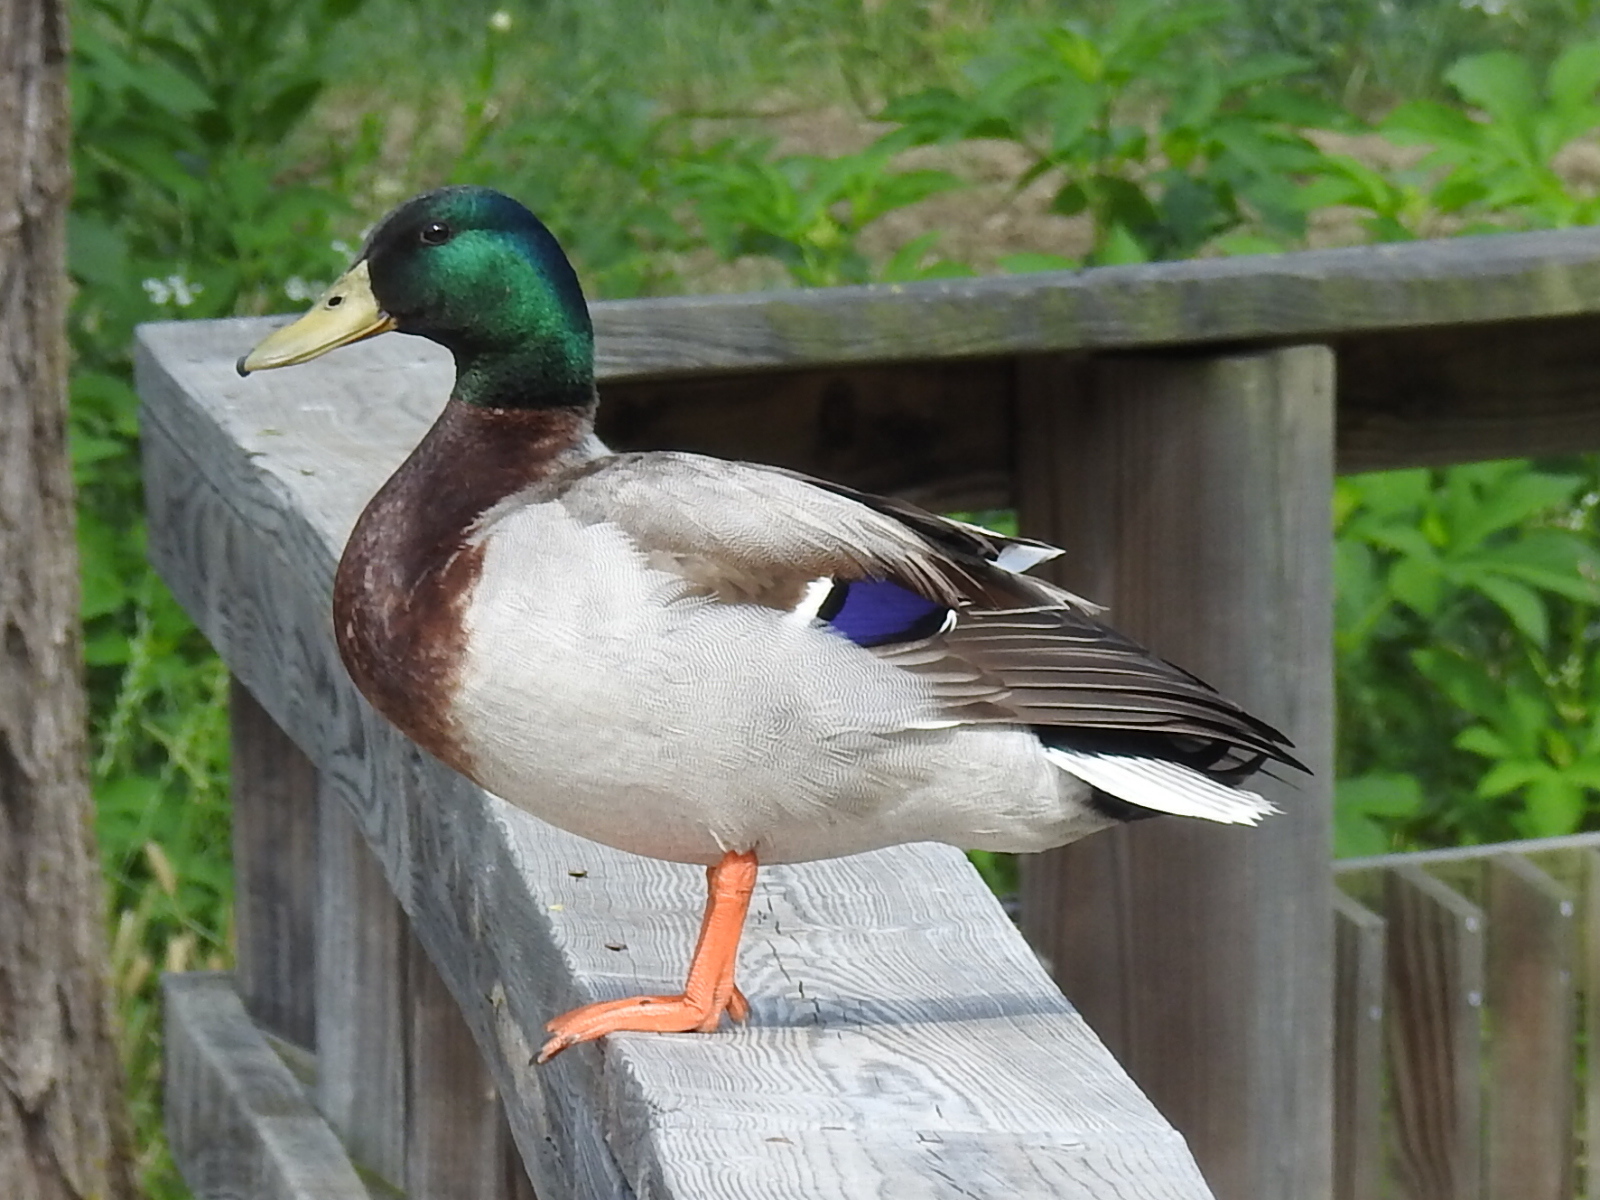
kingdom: Animalia
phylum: Chordata
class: Aves
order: Anseriformes
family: Anatidae
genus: Anas
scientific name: Anas platyrhynchos
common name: Mallard
